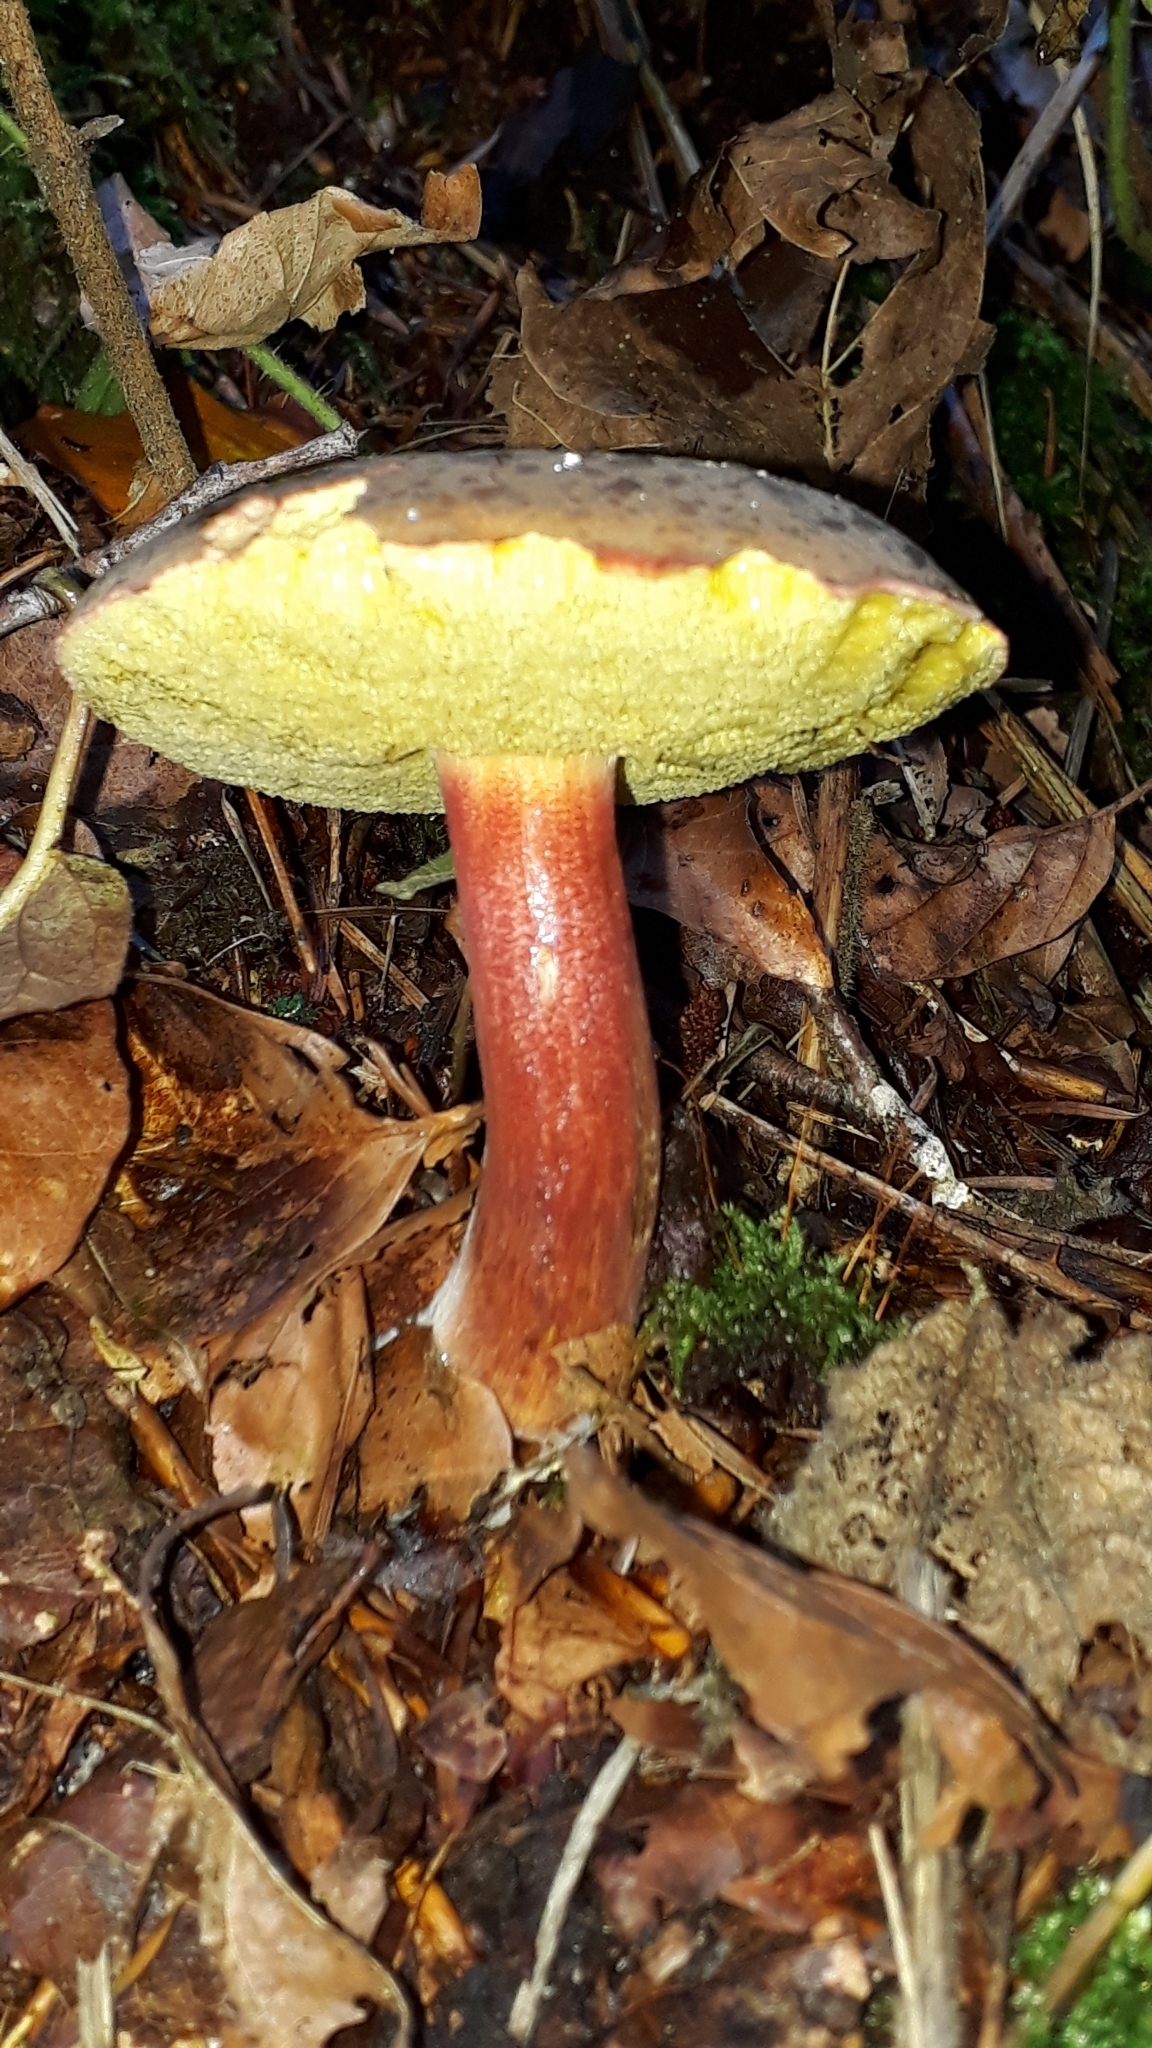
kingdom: Fungi
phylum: Basidiomycota
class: Agaricomycetes
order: Boletales
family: Boletaceae
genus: Xerocomellus
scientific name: Xerocomellus chrysenteron
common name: Red-cracking bolete
